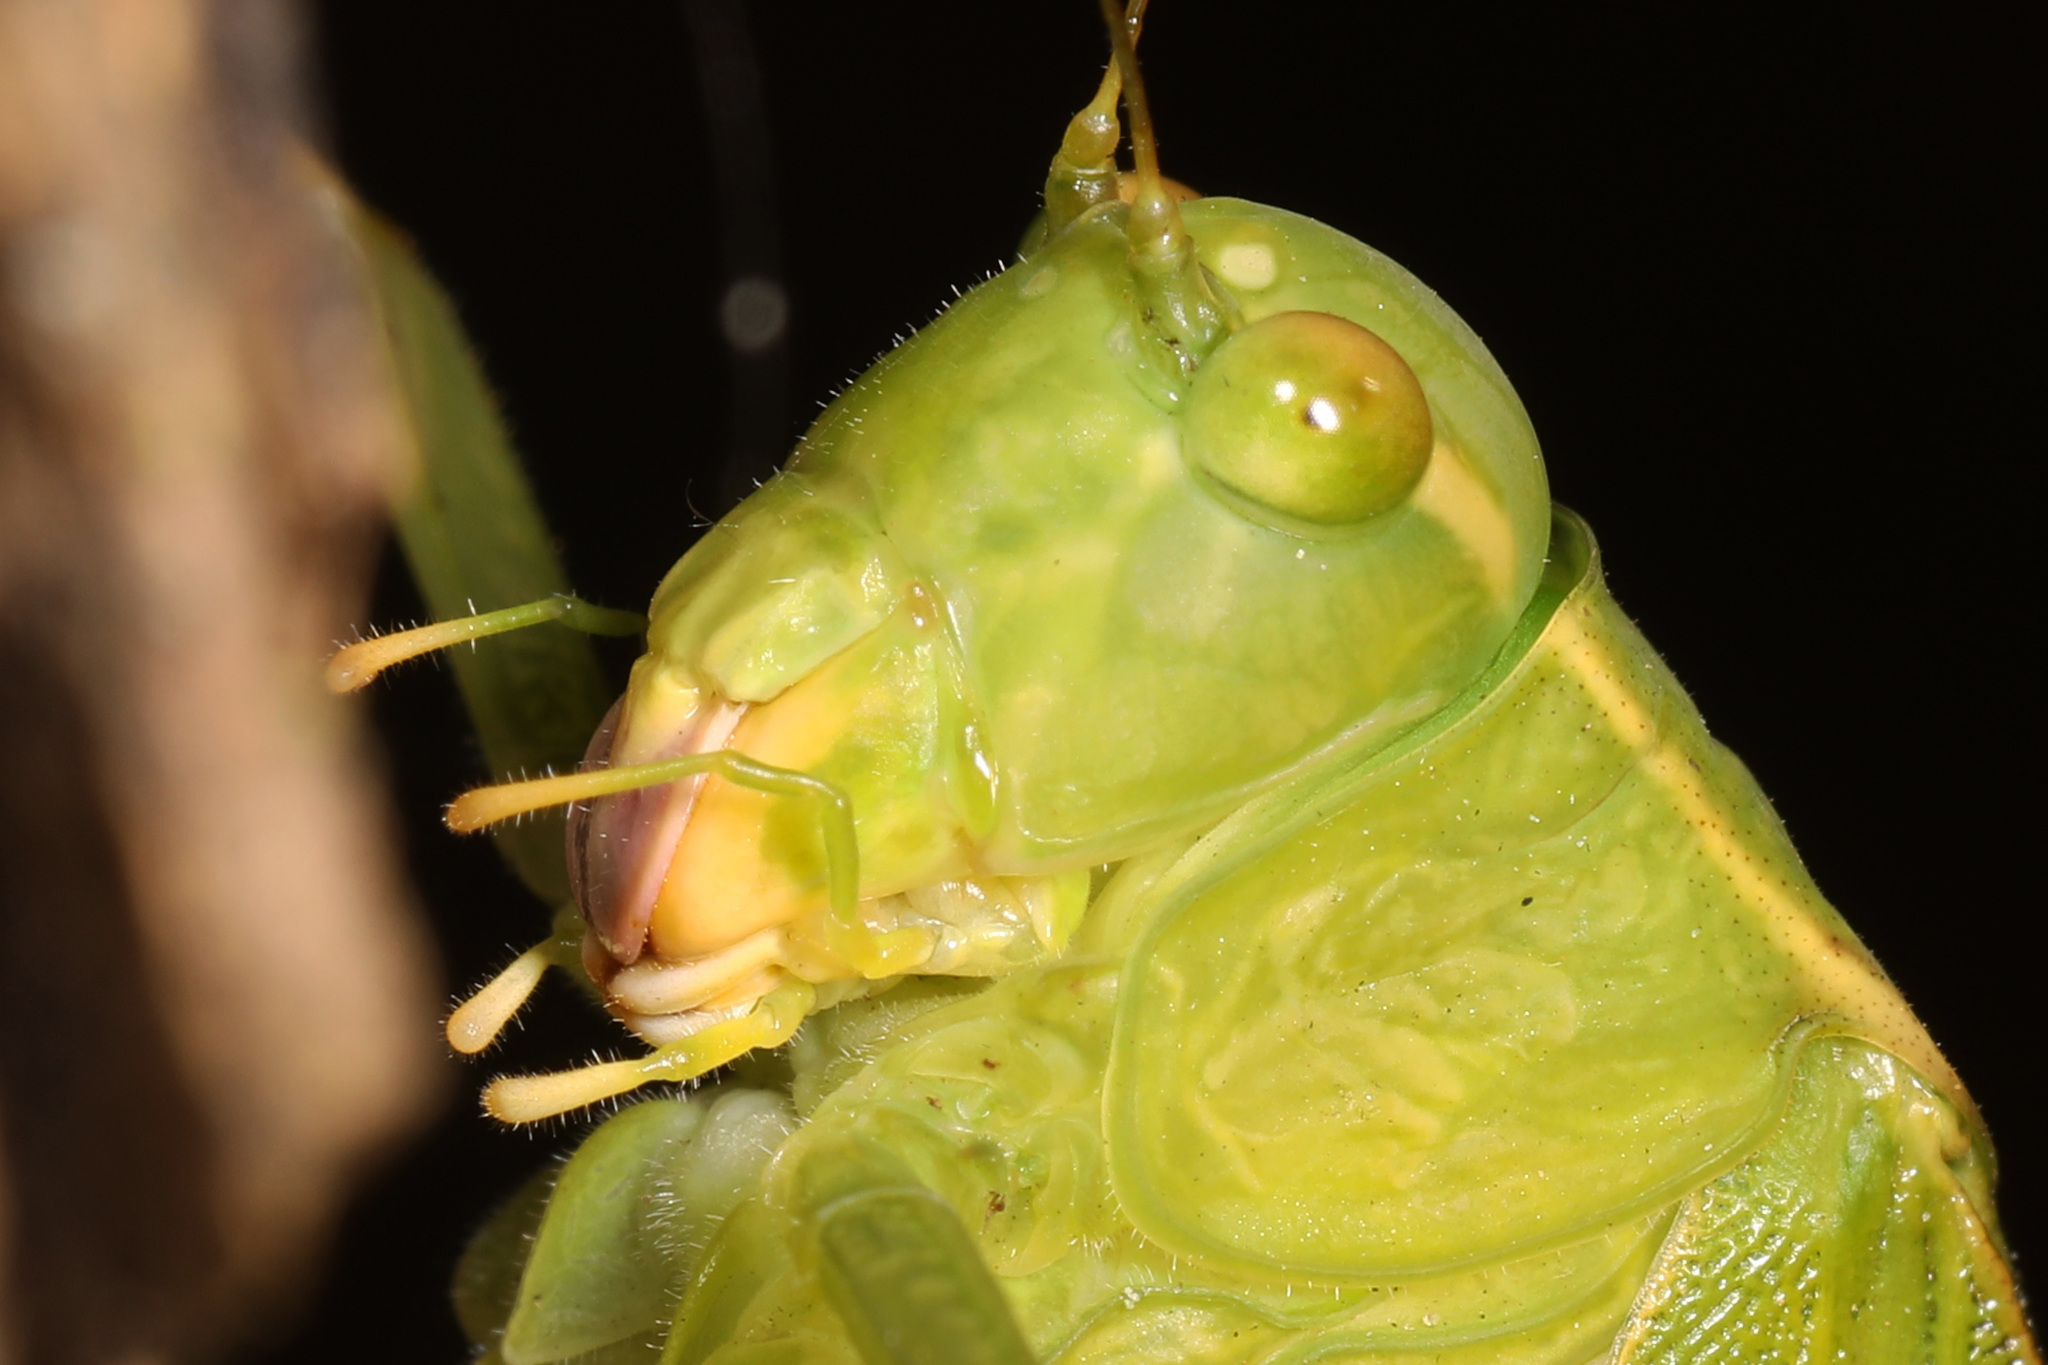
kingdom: Animalia
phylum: Arthropoda
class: Insecta
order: Orthoptera
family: Tettigoniidae
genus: Microcentrum
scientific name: Microcentrum retinerve
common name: Angular-winged katydid
